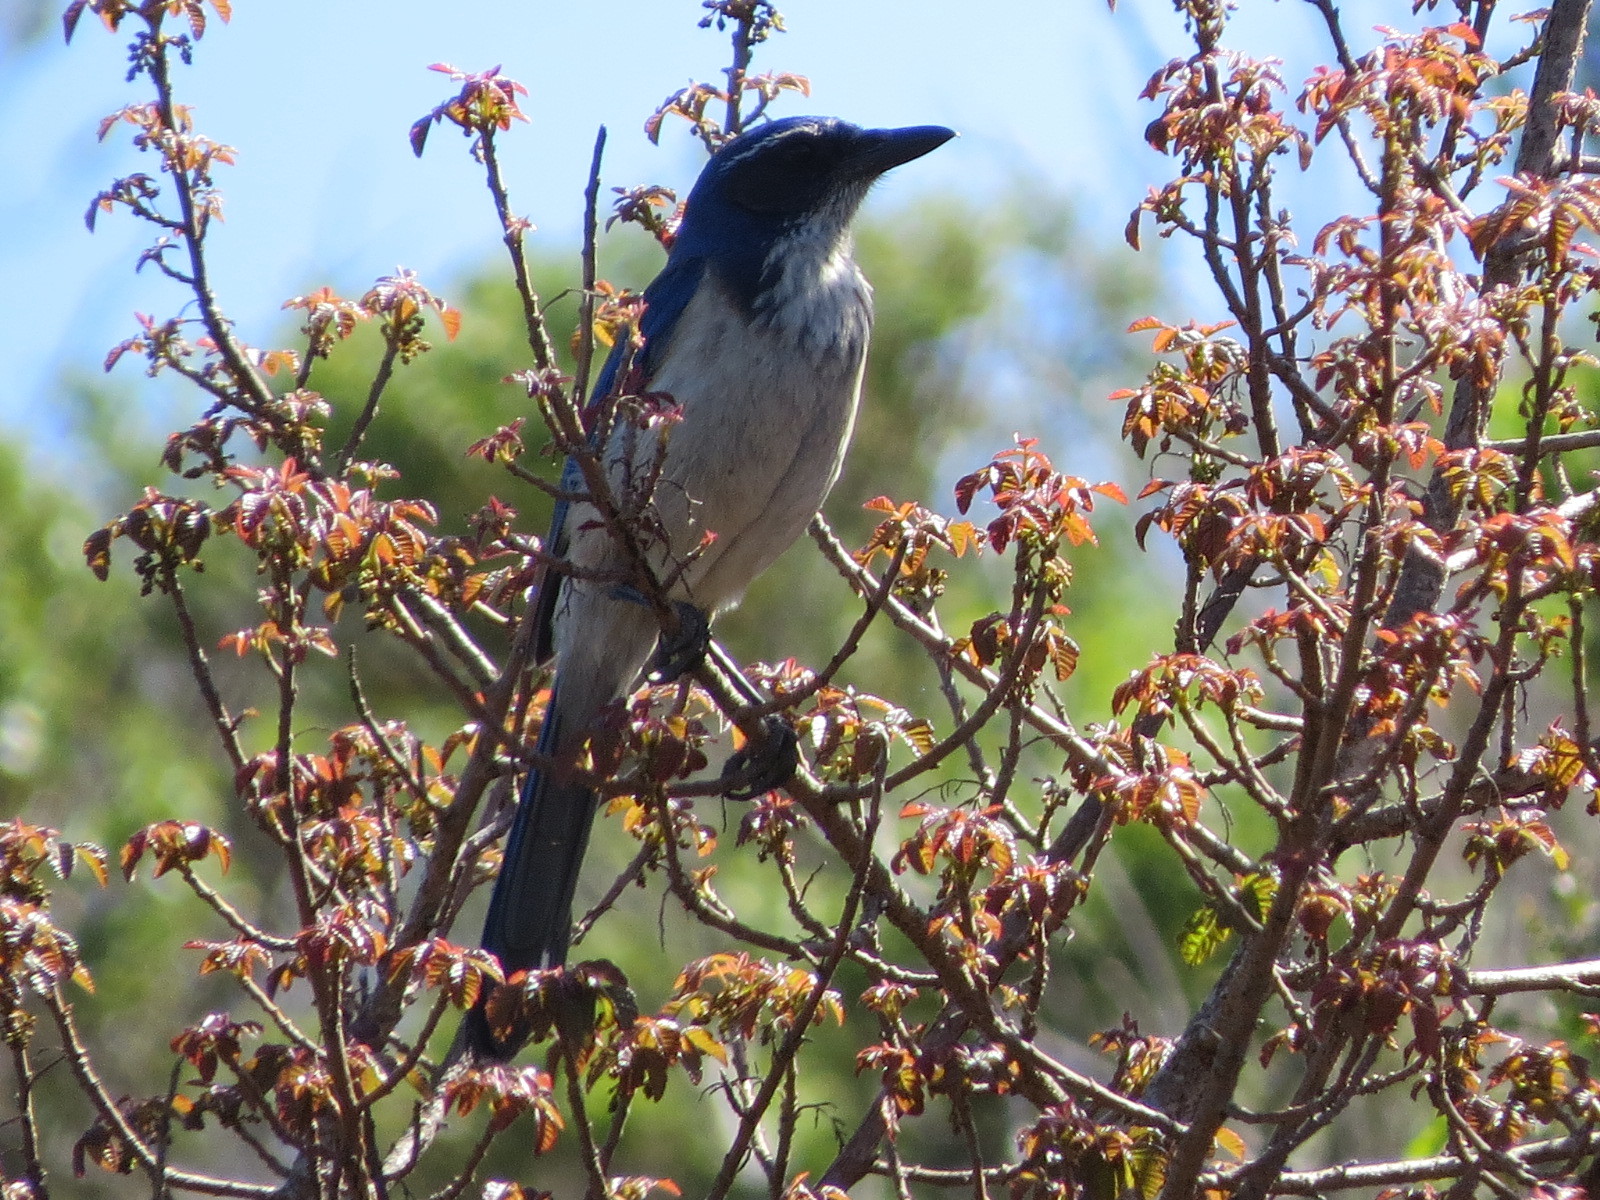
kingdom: Animalia
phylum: Chordata
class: Aves
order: Passeriformes
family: Corvidae
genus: Aphelocoma
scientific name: Aphelocoma californica
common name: California scrub-jay
